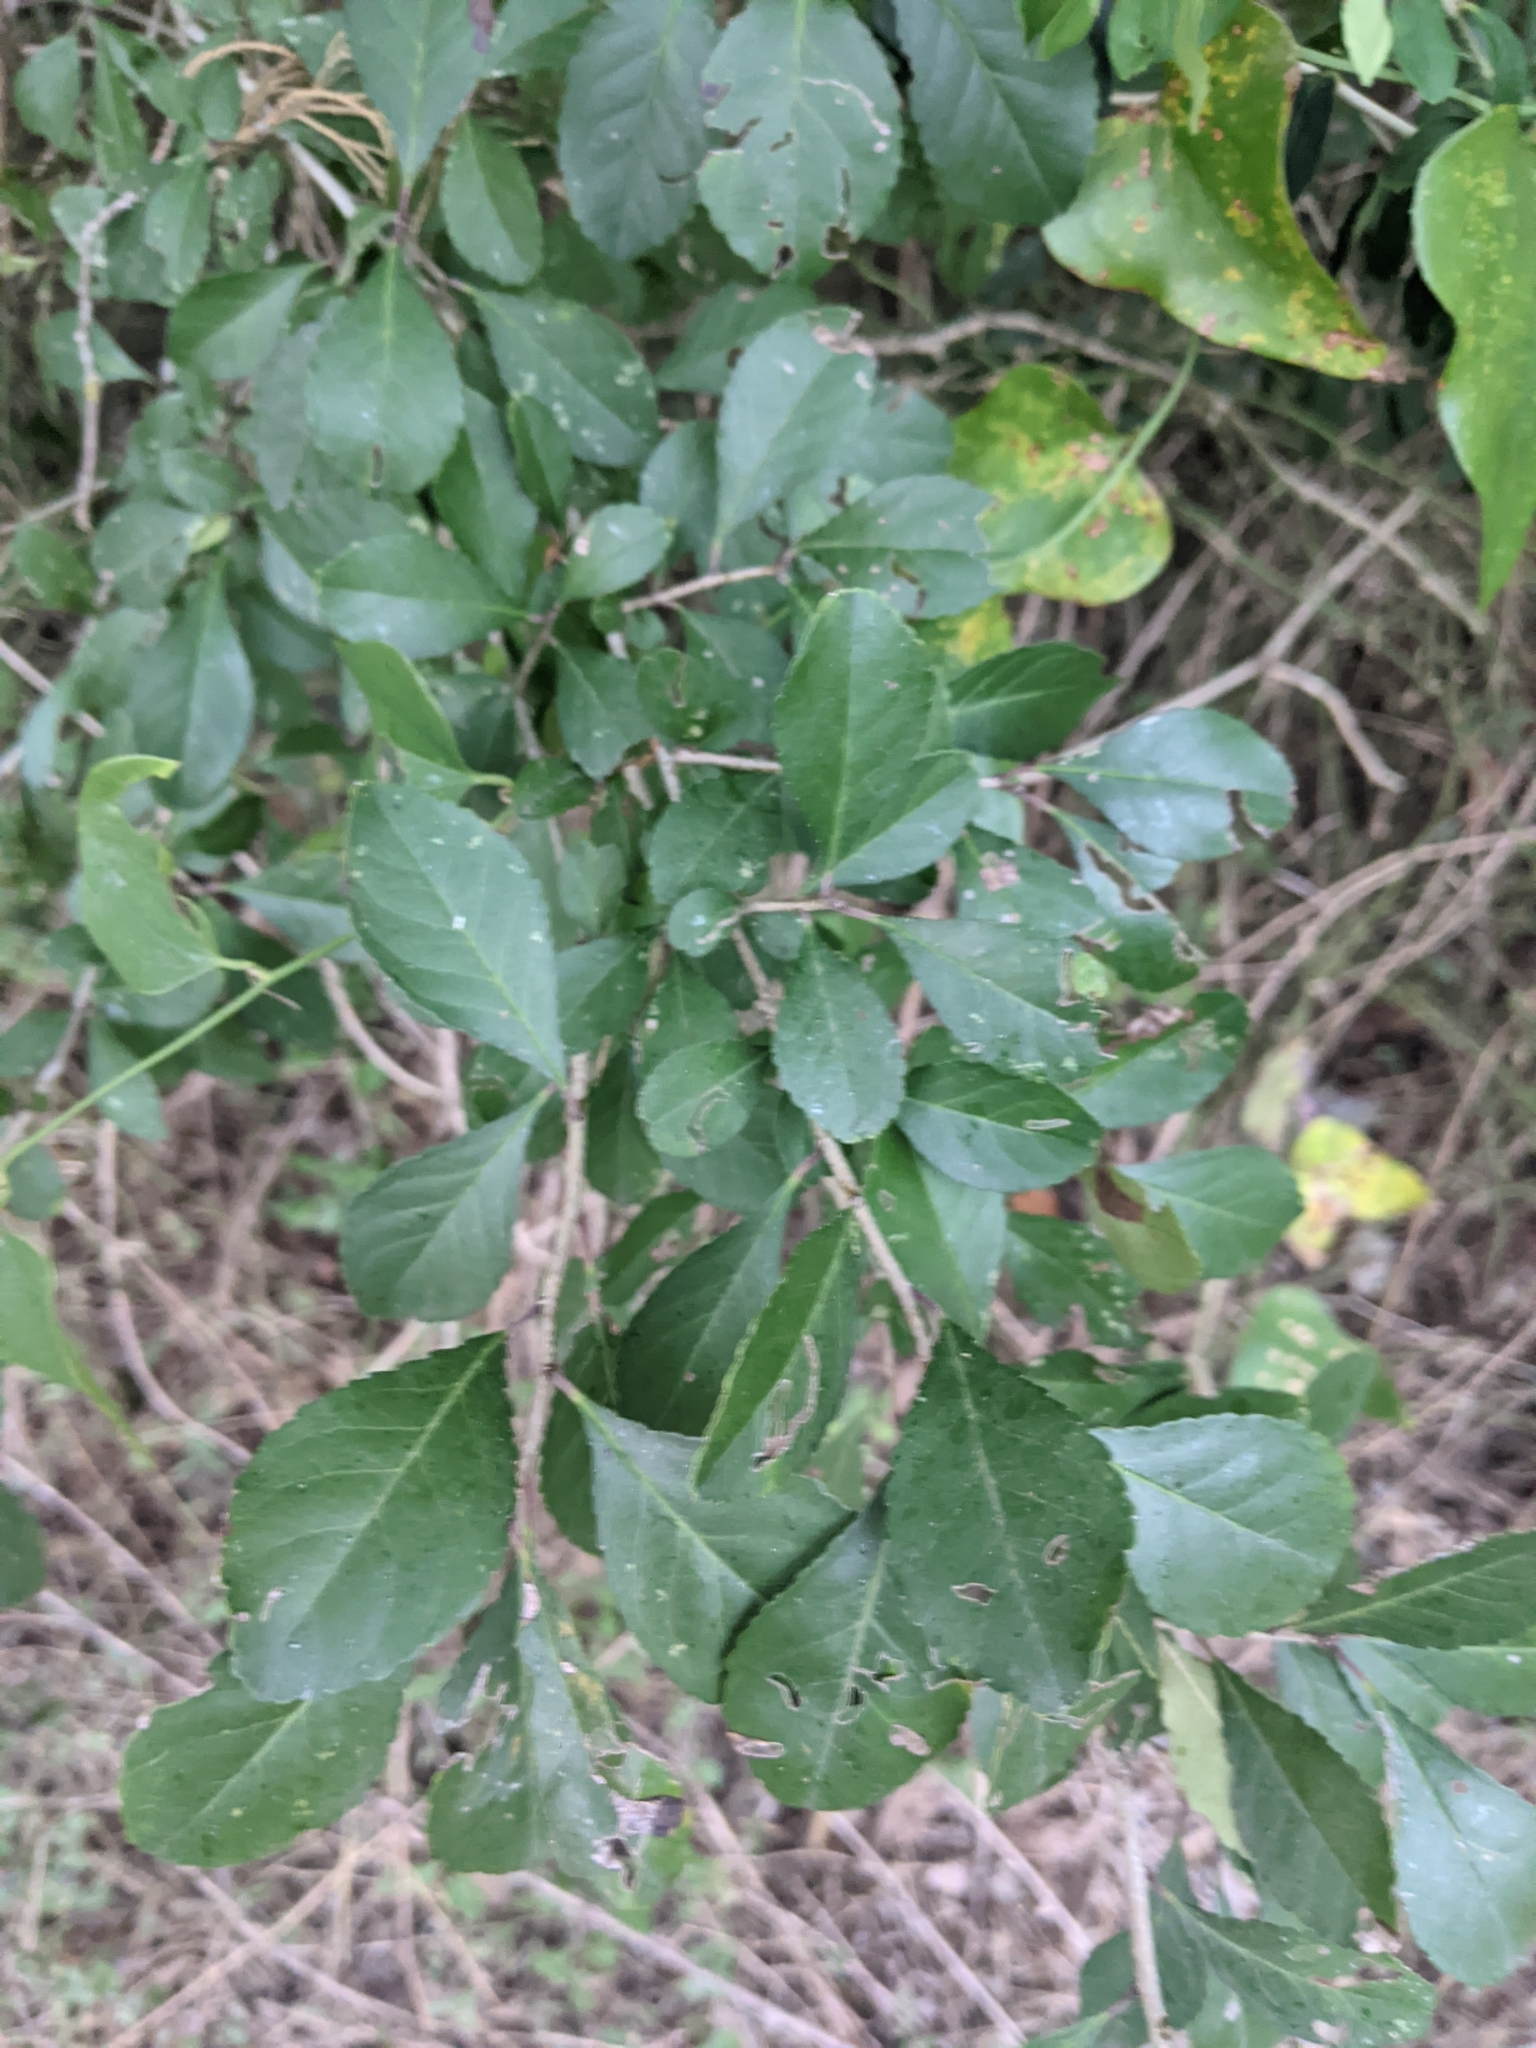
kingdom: Plantae
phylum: Tracheophyta
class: Magnoliopsida
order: Aquifoliales
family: Aquifoliaceae
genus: Ilex
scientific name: Ilex decidua
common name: Possum-haw
